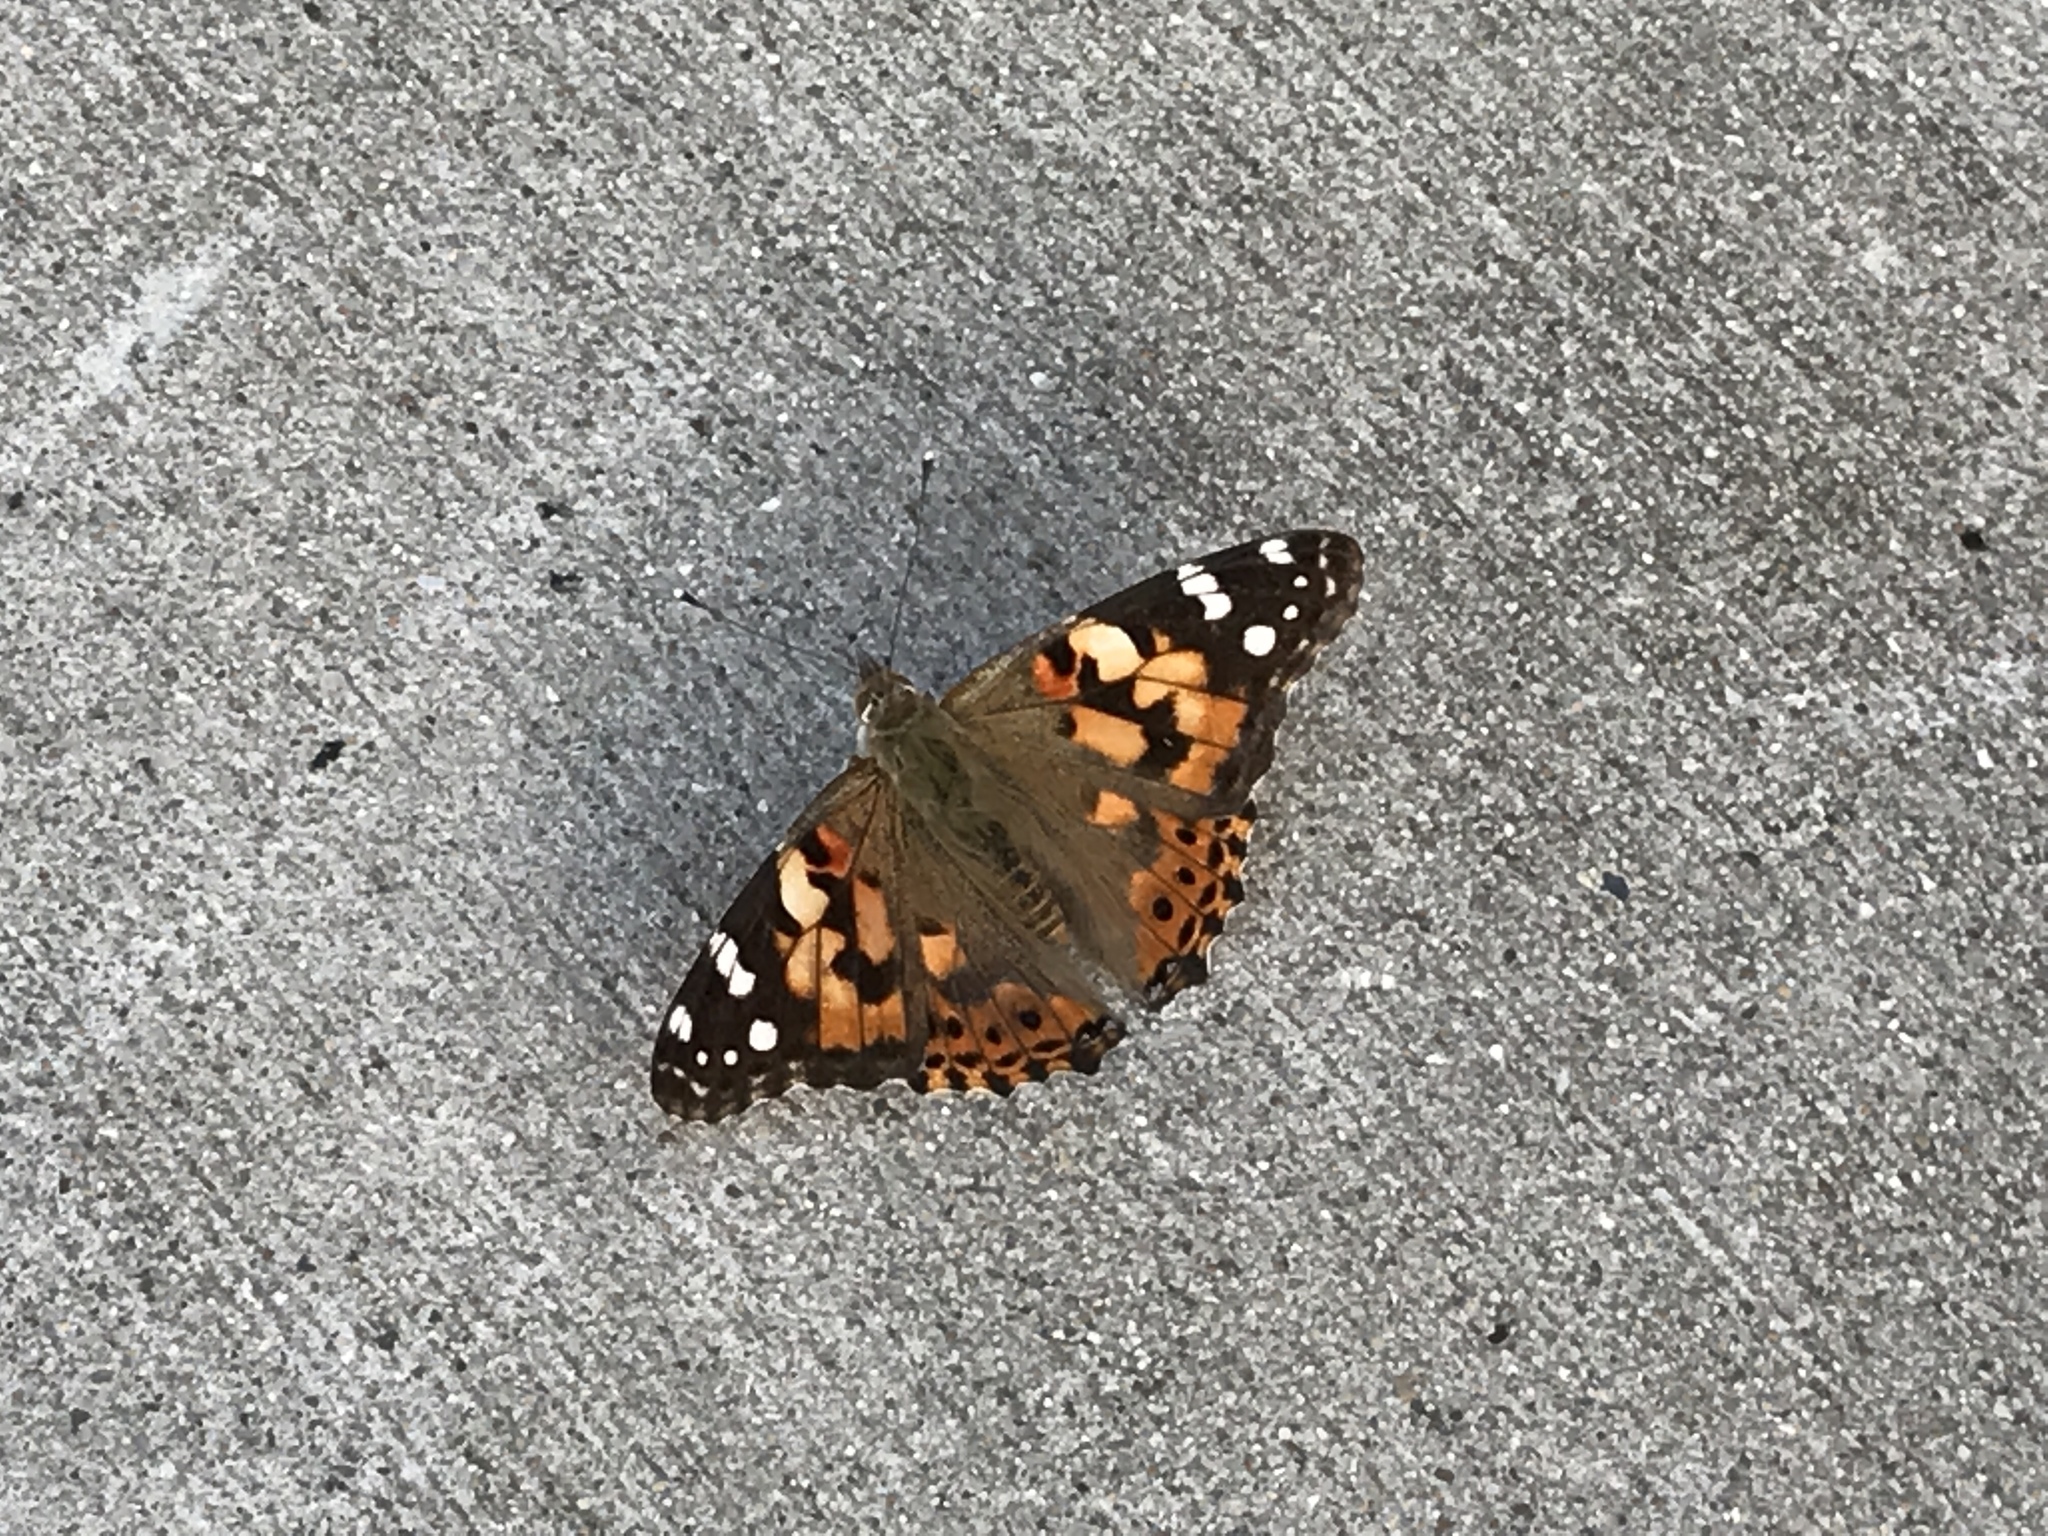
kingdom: Animalia
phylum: Arthropoda
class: Insecta
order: Lepidoptera
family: Nymphalidae
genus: Vanessa
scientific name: Vanessa cardui
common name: Painted lady
